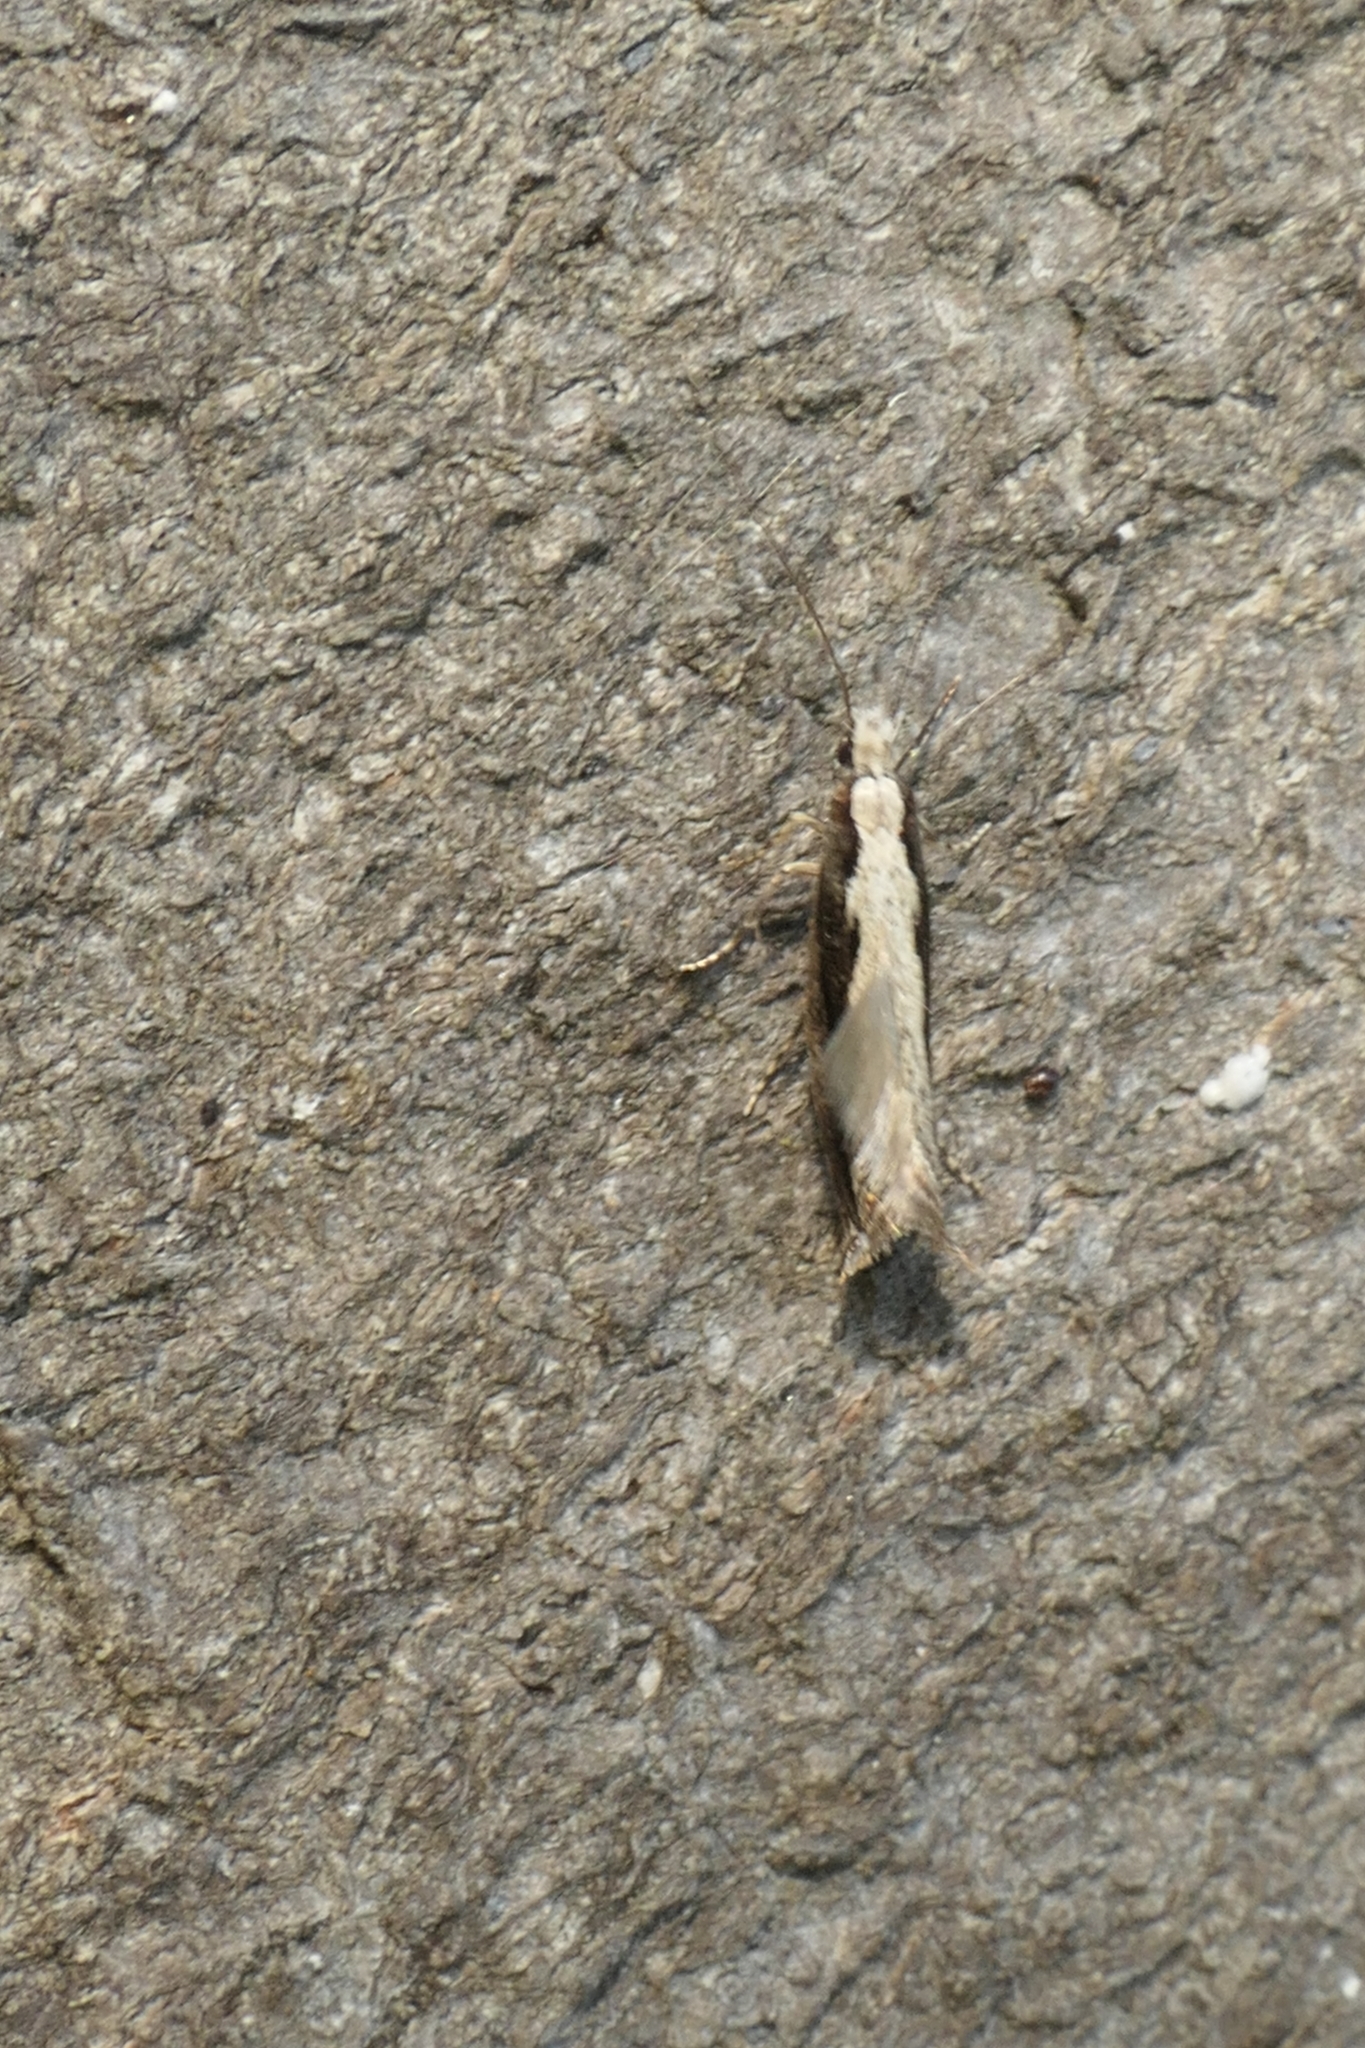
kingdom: Animalia
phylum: Arthropoda
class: Insecta
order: Lepidoptera
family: Tineidae
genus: Erechthias
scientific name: Erechthias fulguritella
